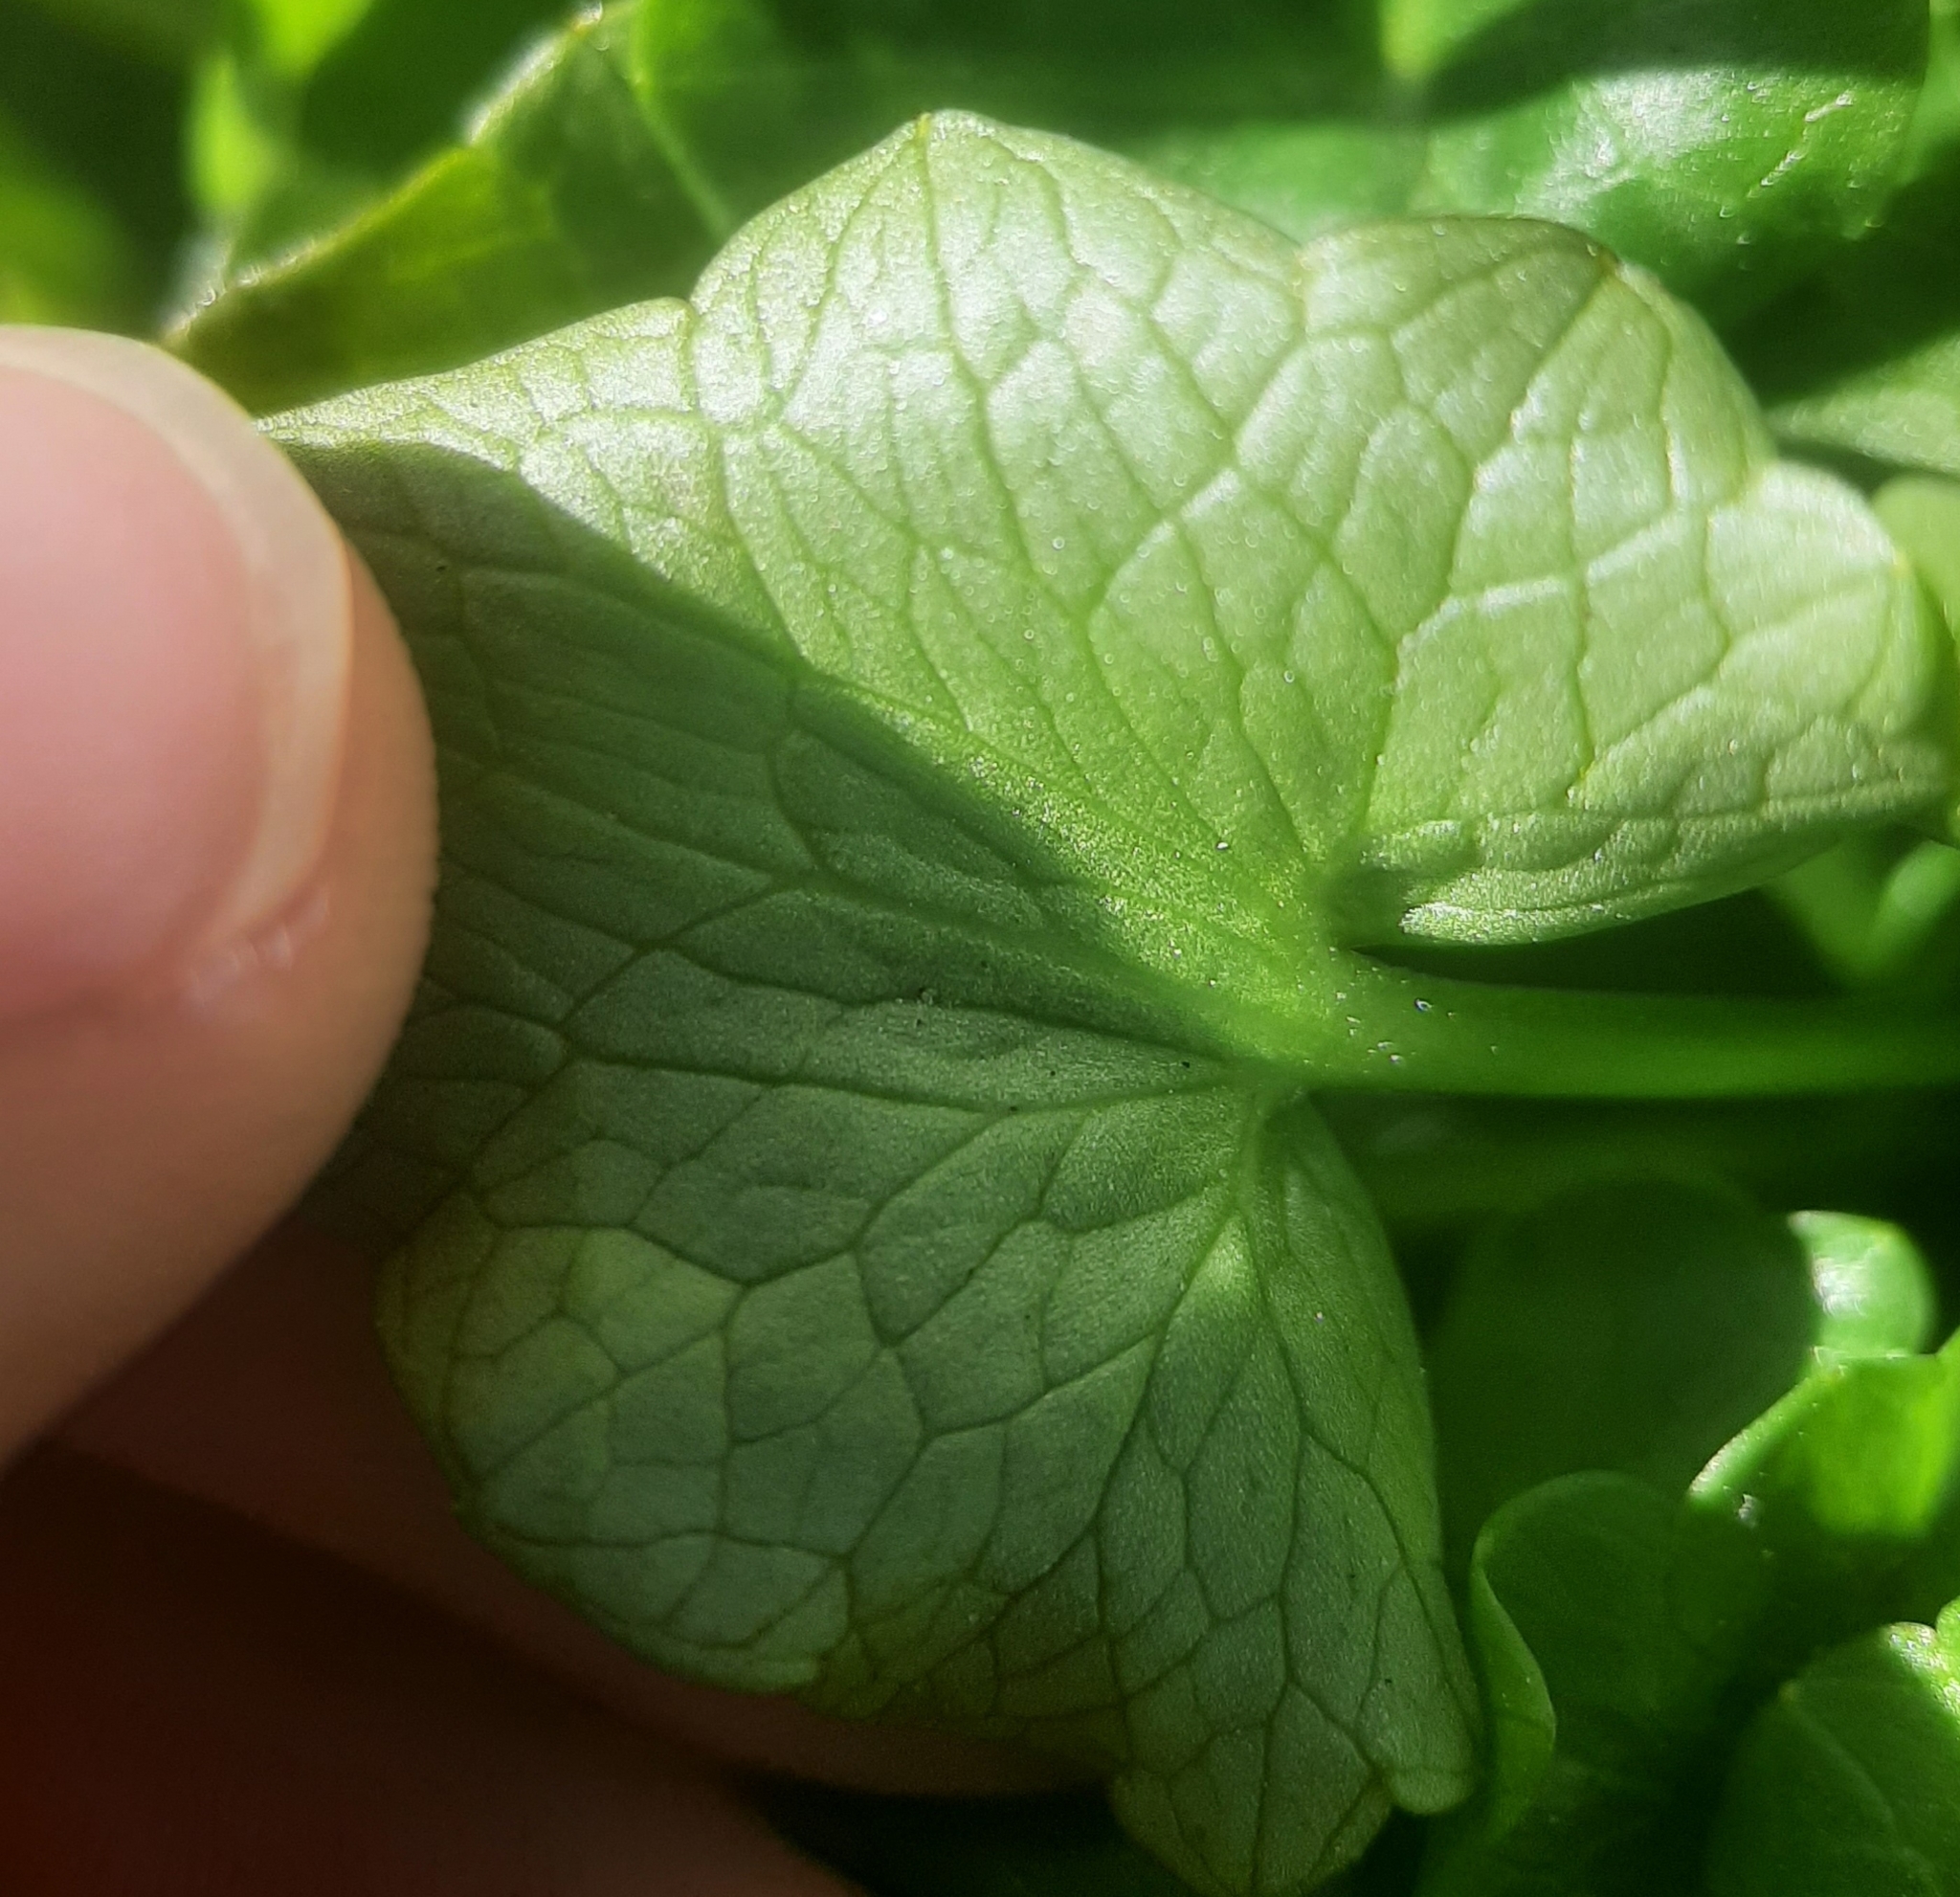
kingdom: Plantae
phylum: Tracheophyta
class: Magnoliopsida
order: Ranunculales
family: Ranunculaceae
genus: Ficaria
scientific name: Ficaria verna
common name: Lesser celandine
